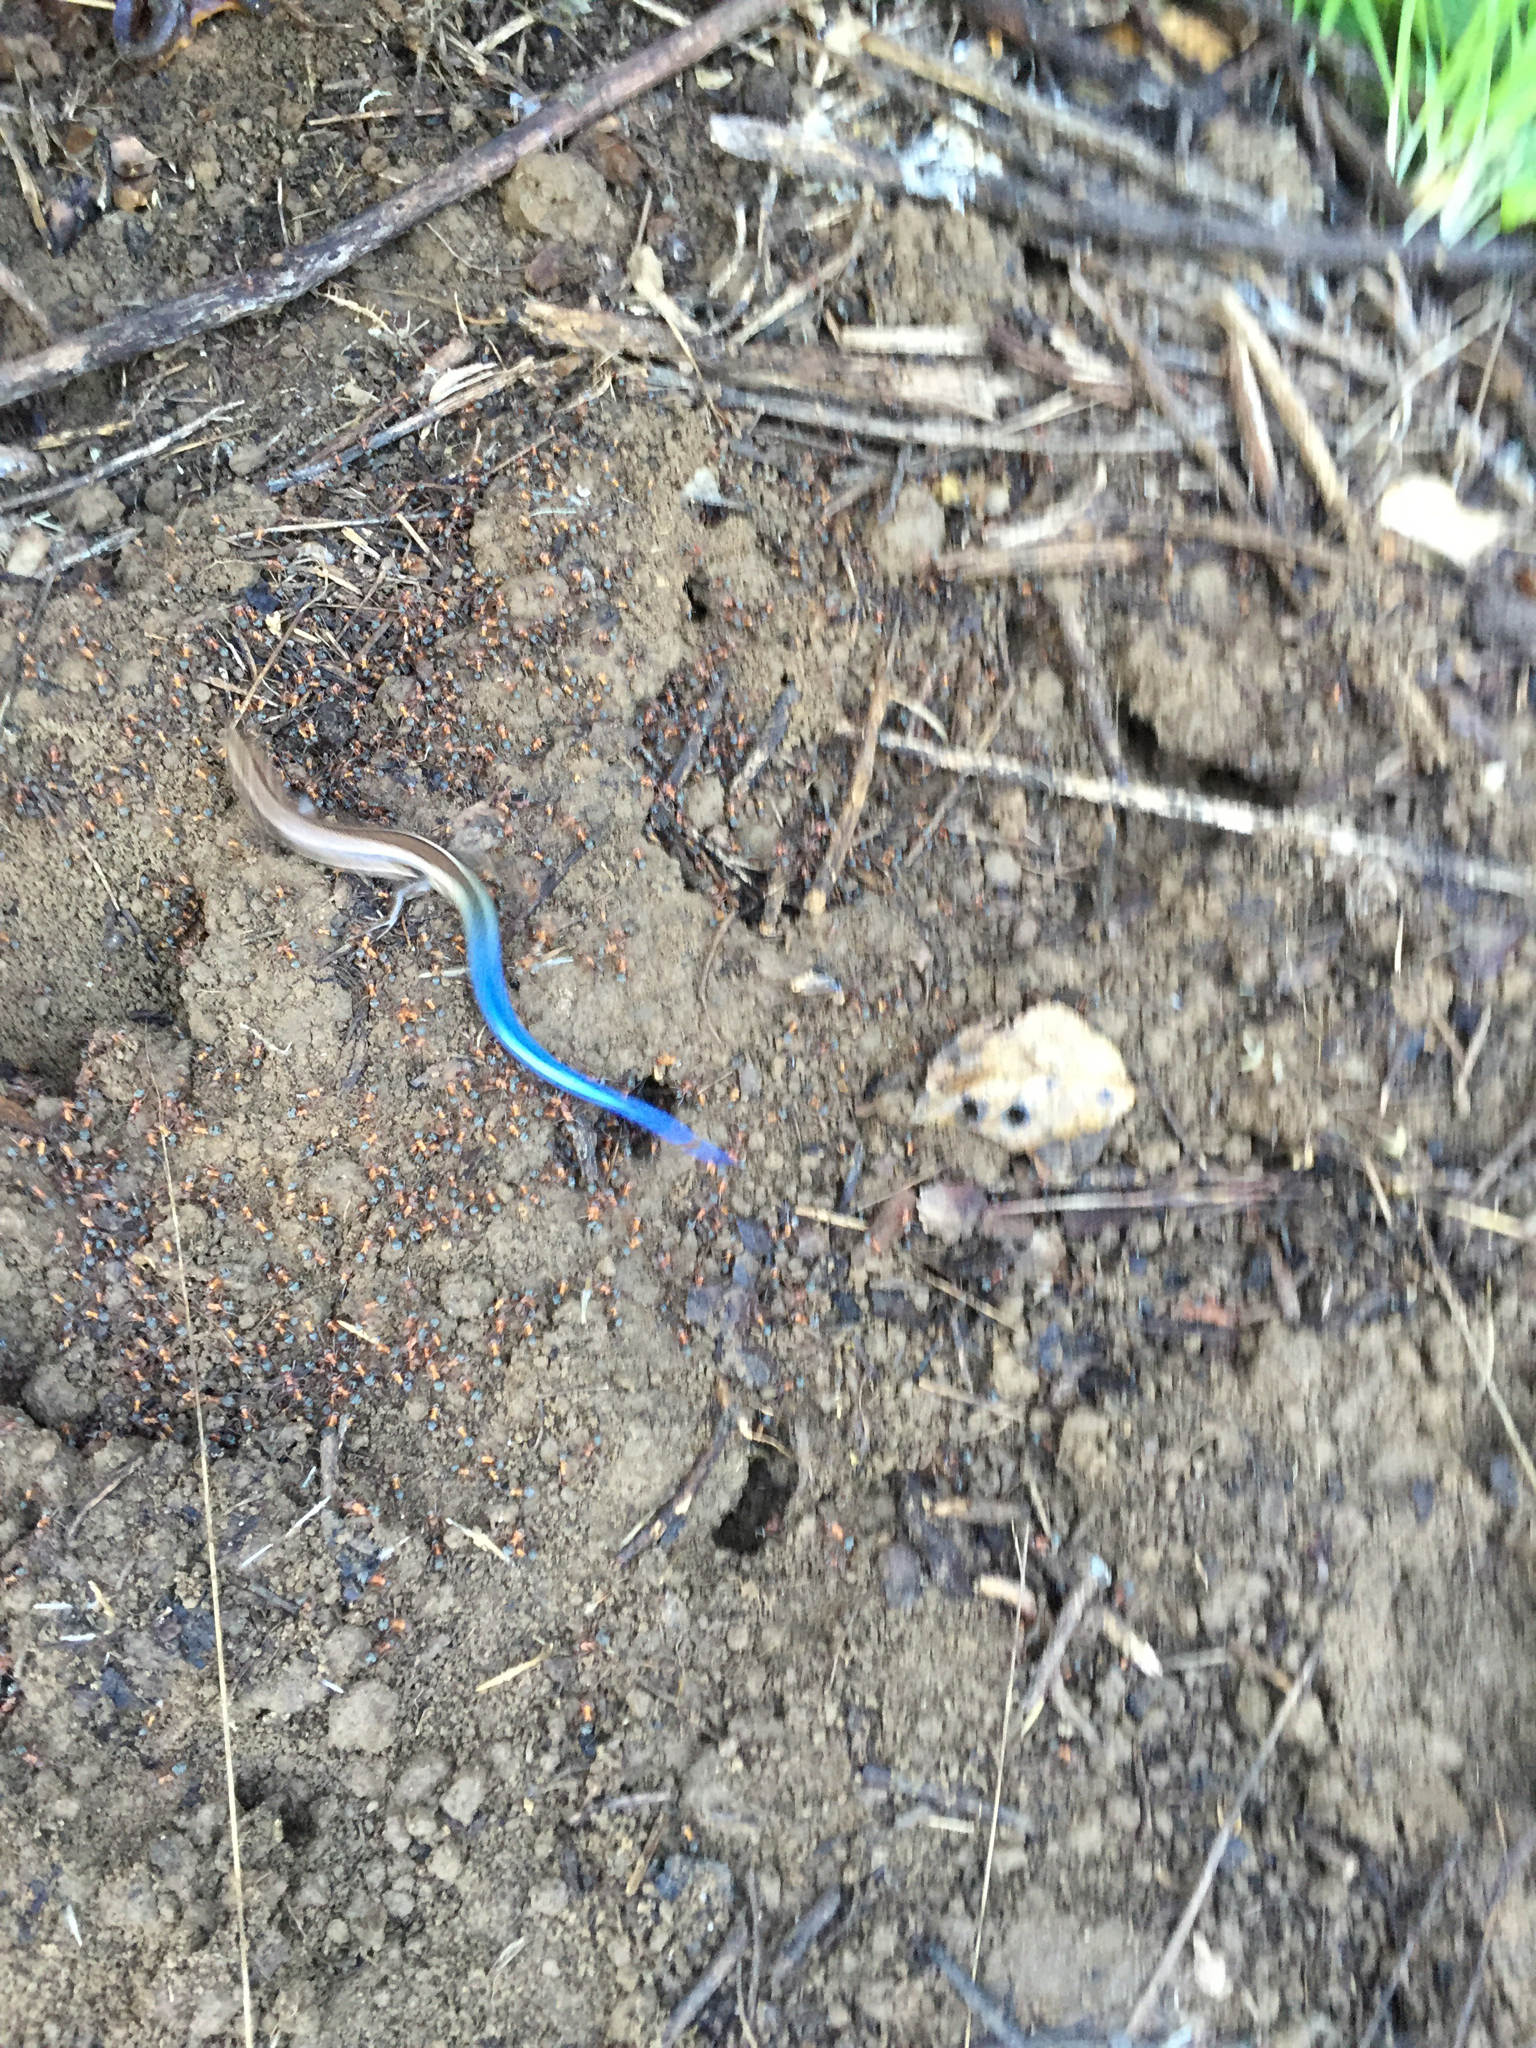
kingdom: Animalia
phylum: Chordata
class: Squamata
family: Scincidae
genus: Plestiodon
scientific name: Plestiodon skiltonianus
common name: Coronado island skink [interparietalis]
